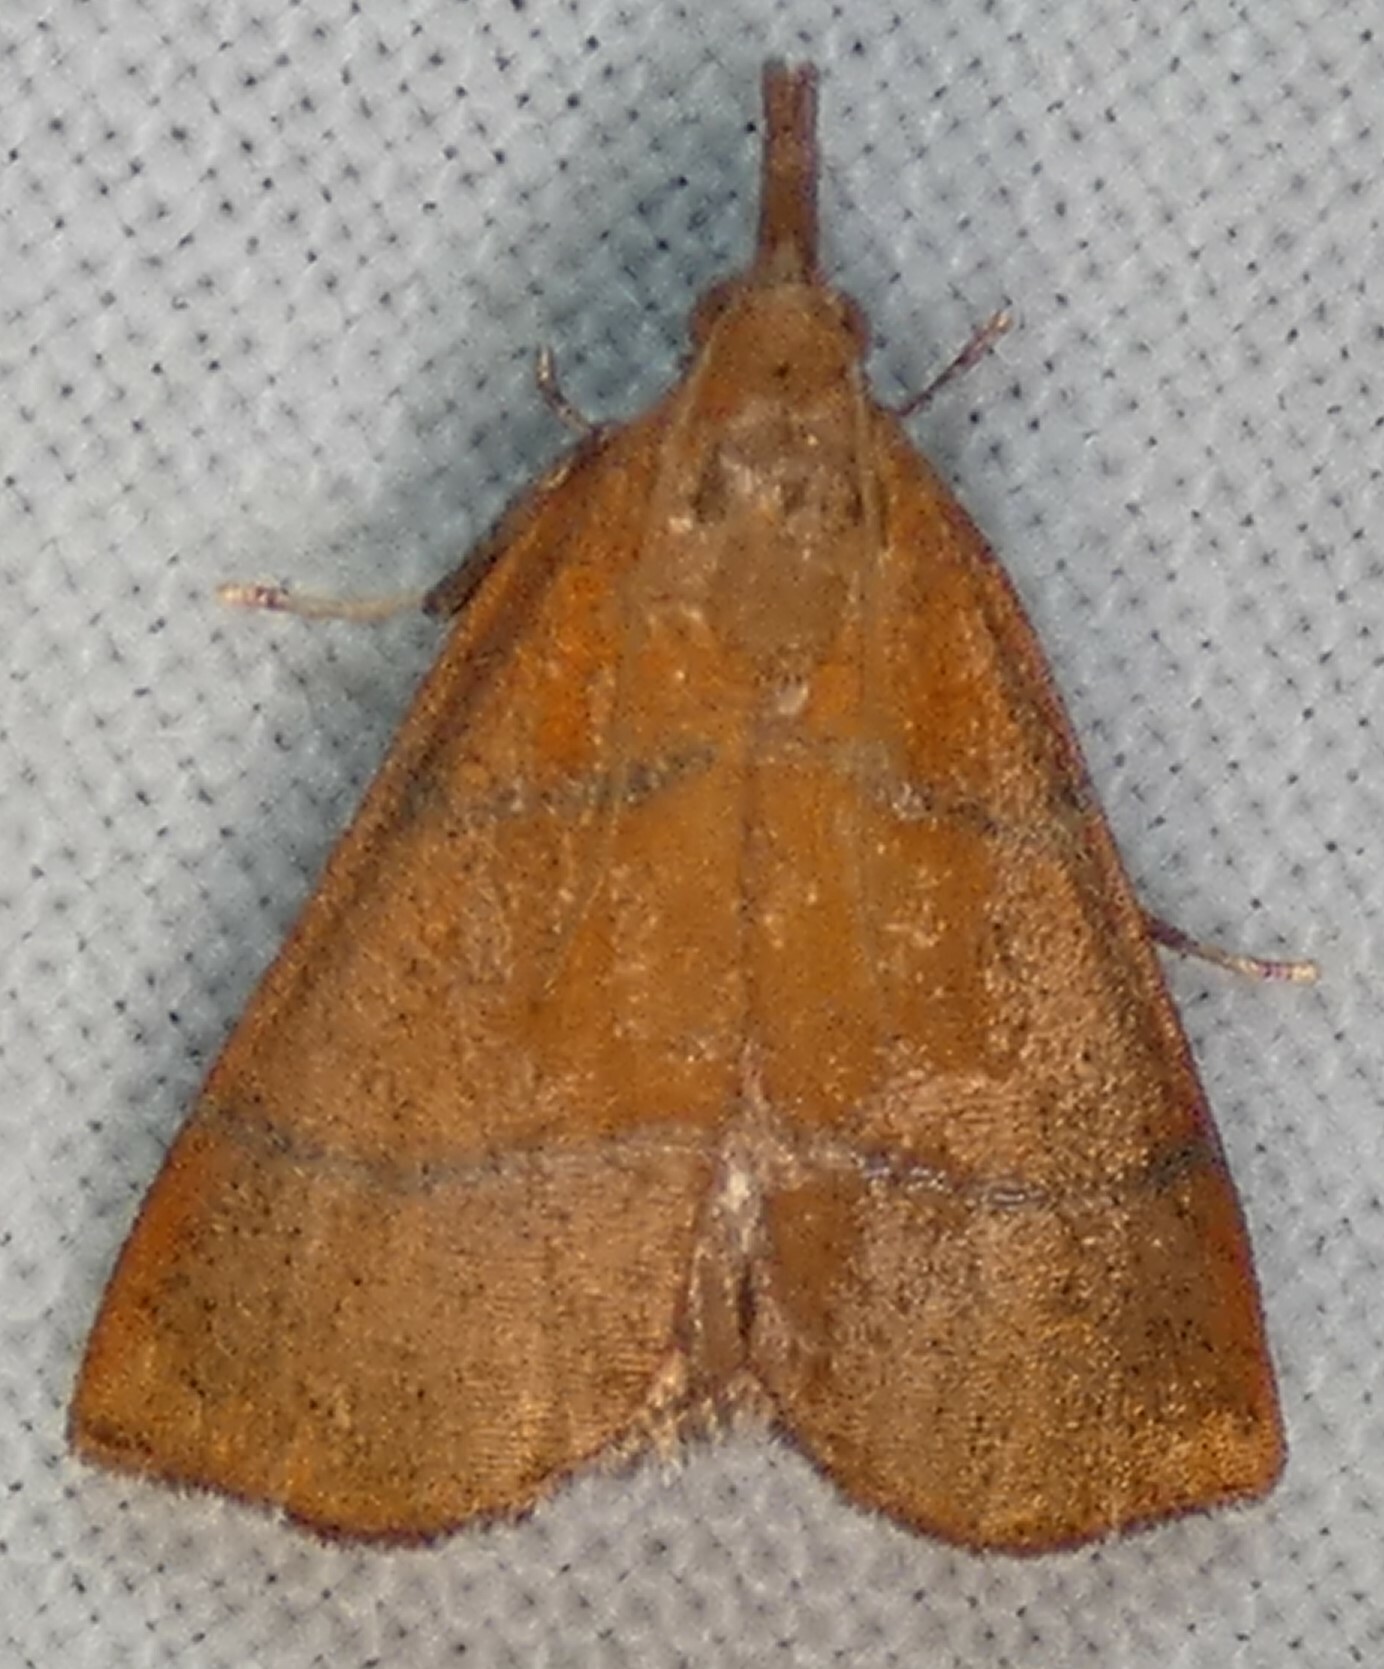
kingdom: Animalia
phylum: Arthropoda
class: Insecta
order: Lepidoptera
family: Pyralidae
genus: Lepidomys
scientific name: Lepidomys irrenosa
